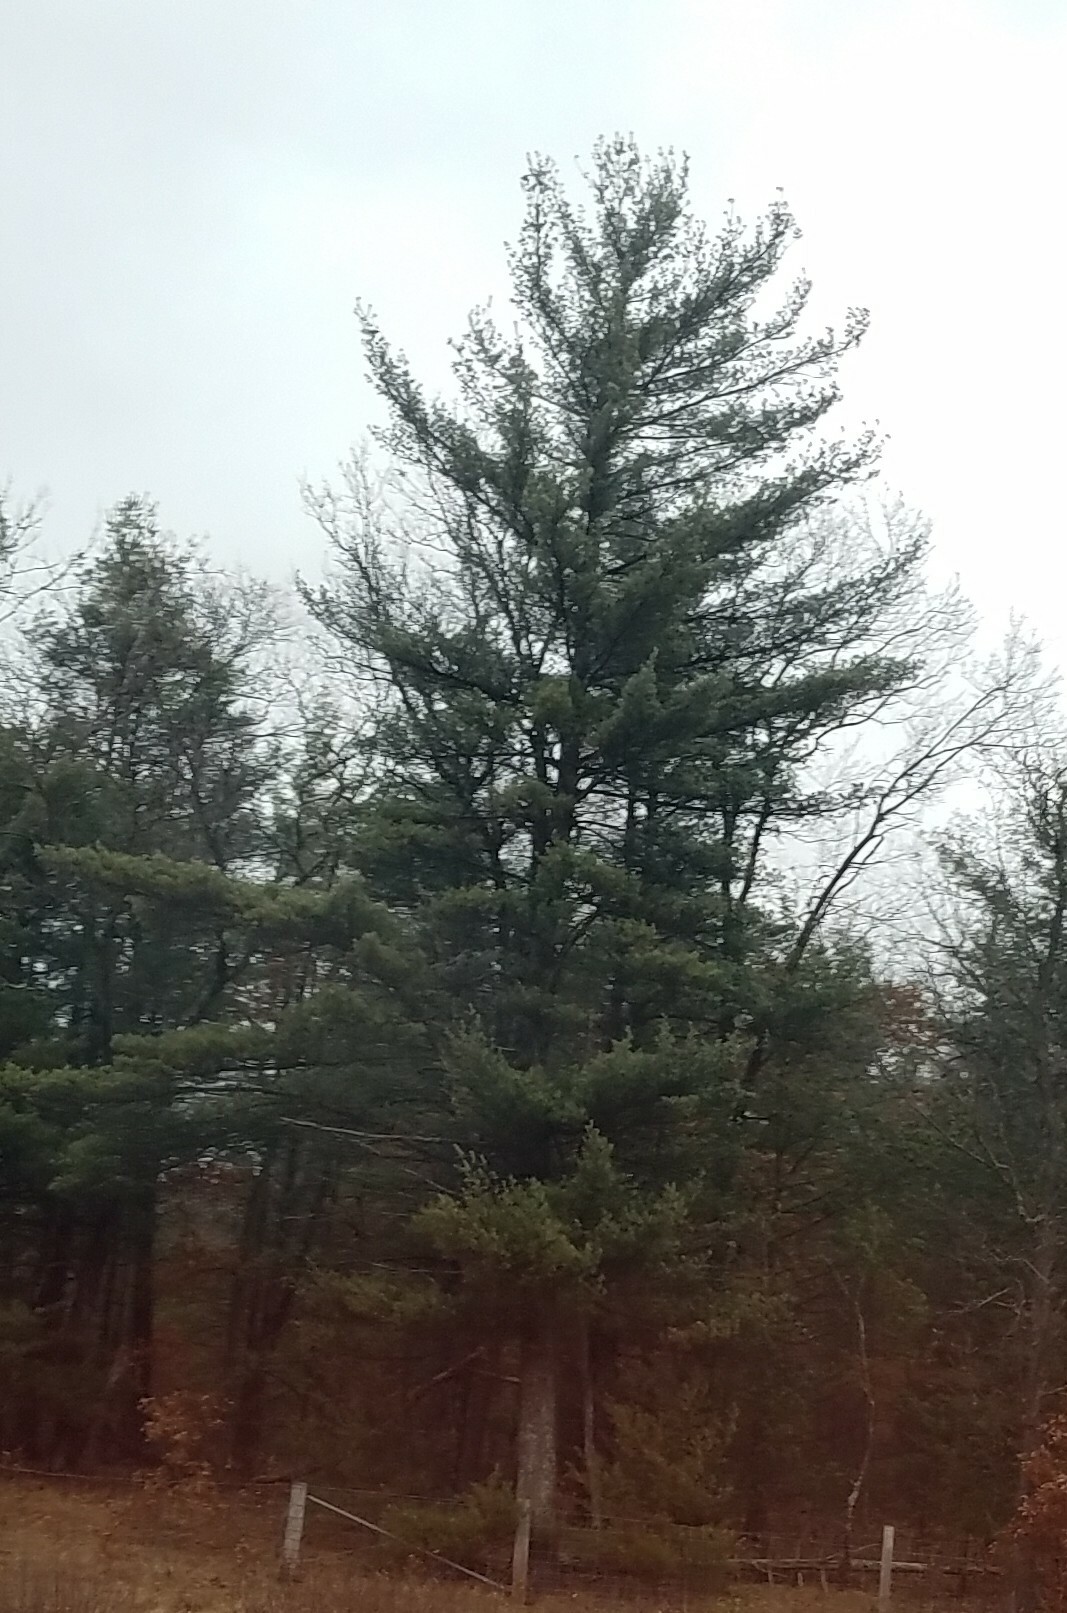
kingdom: Plantae
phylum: Tracheophyta
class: Pinopsida
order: Pinales
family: Pinaceae
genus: Pinus
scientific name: Pinus strobus
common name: Weymouth pine
